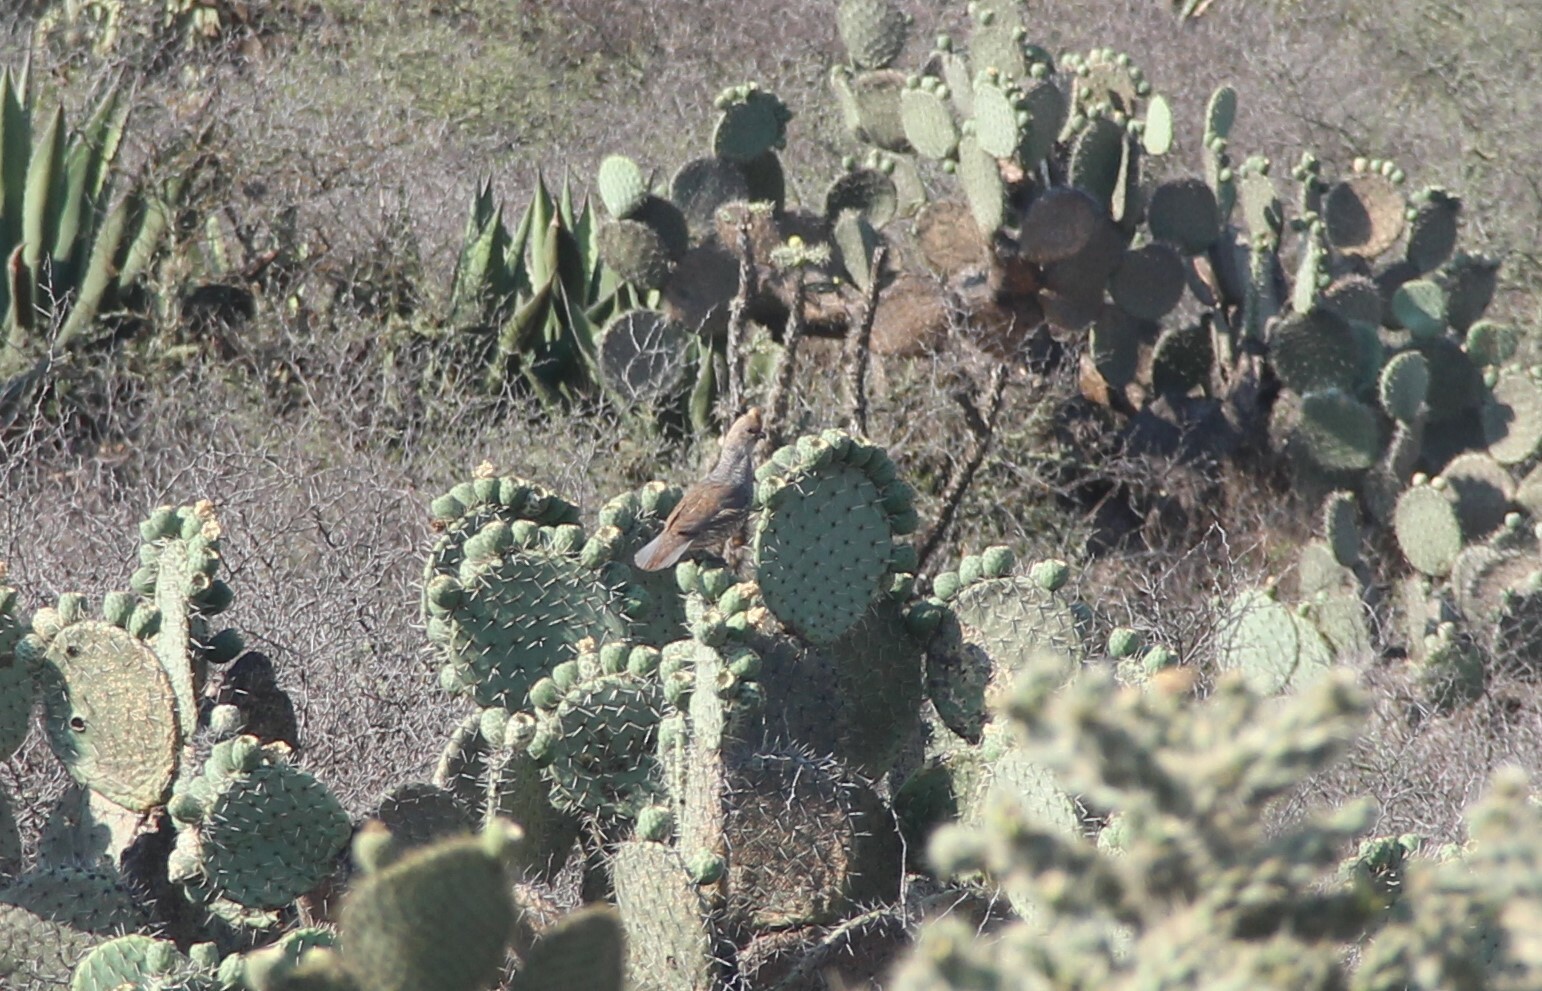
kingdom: Animalia
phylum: Chordata
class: Aves
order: Galliformes
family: Odontophoridae
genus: Callipepla
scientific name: Callipepla squamata
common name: Scaled quail
